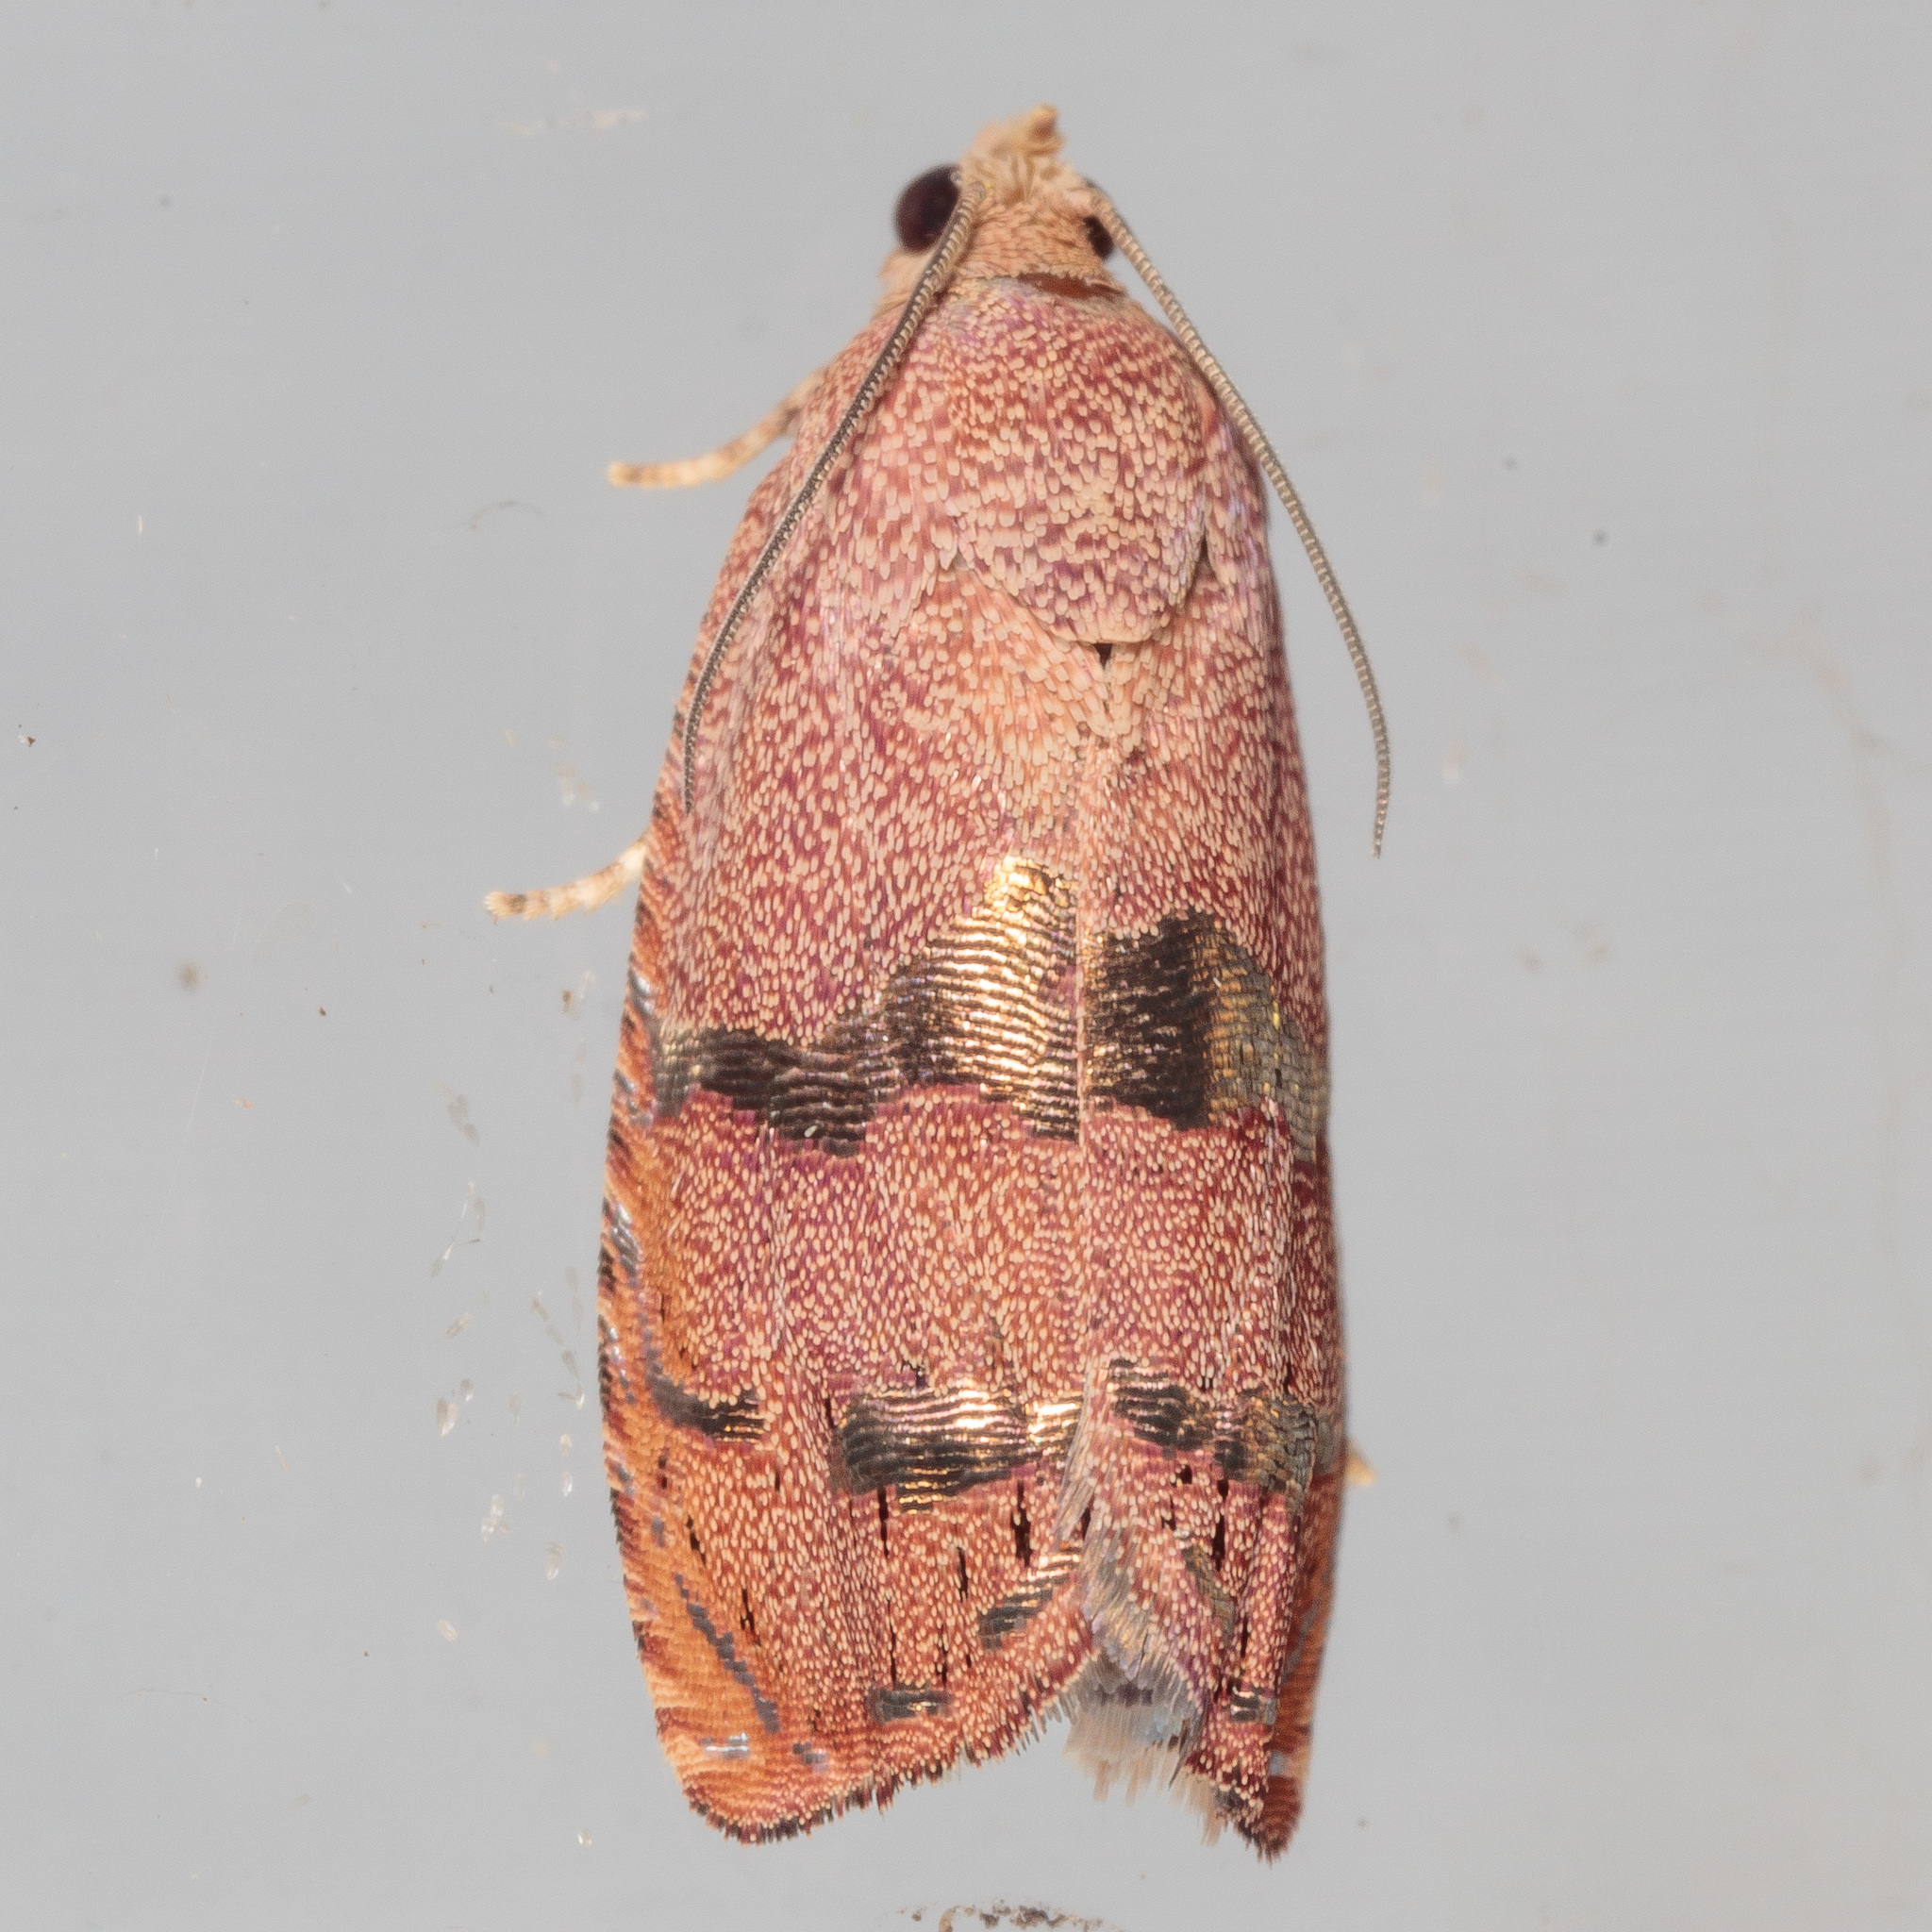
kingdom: Animalia
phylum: Arthropoda
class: Insecta
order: Lepidoptera
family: Tortricidae
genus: Cydia
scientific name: Cydia latiferreana
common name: Filbertworm moth
